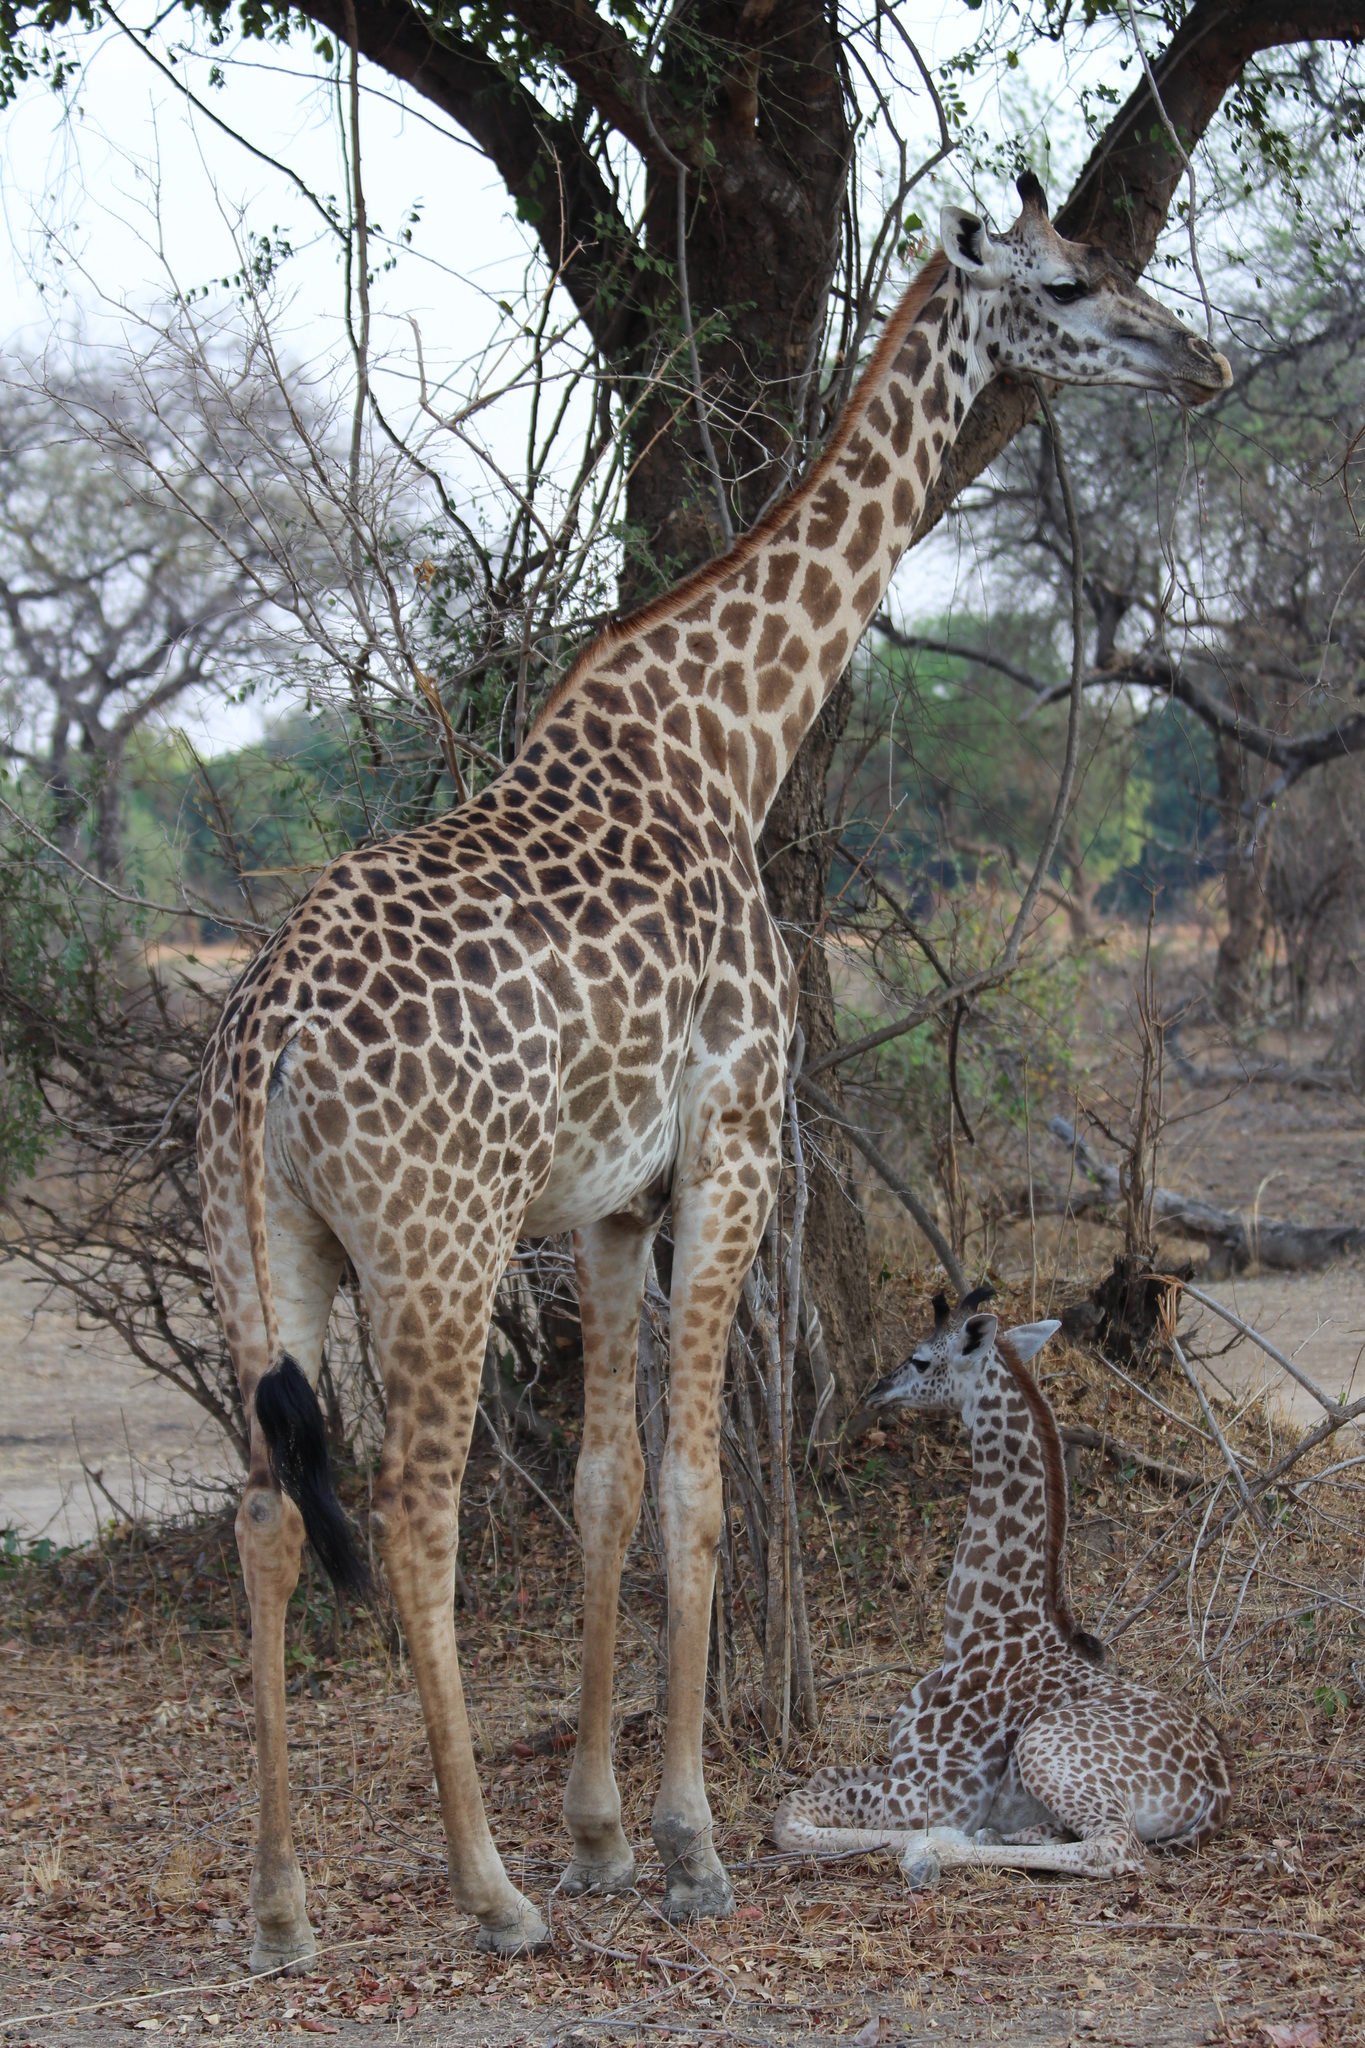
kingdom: Animalia
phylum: Chordata
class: Mammalia
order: Artiodactyla
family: Giraffidae
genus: Giraffa
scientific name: Giraffa tippelskirchi
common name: Masai giraffe
